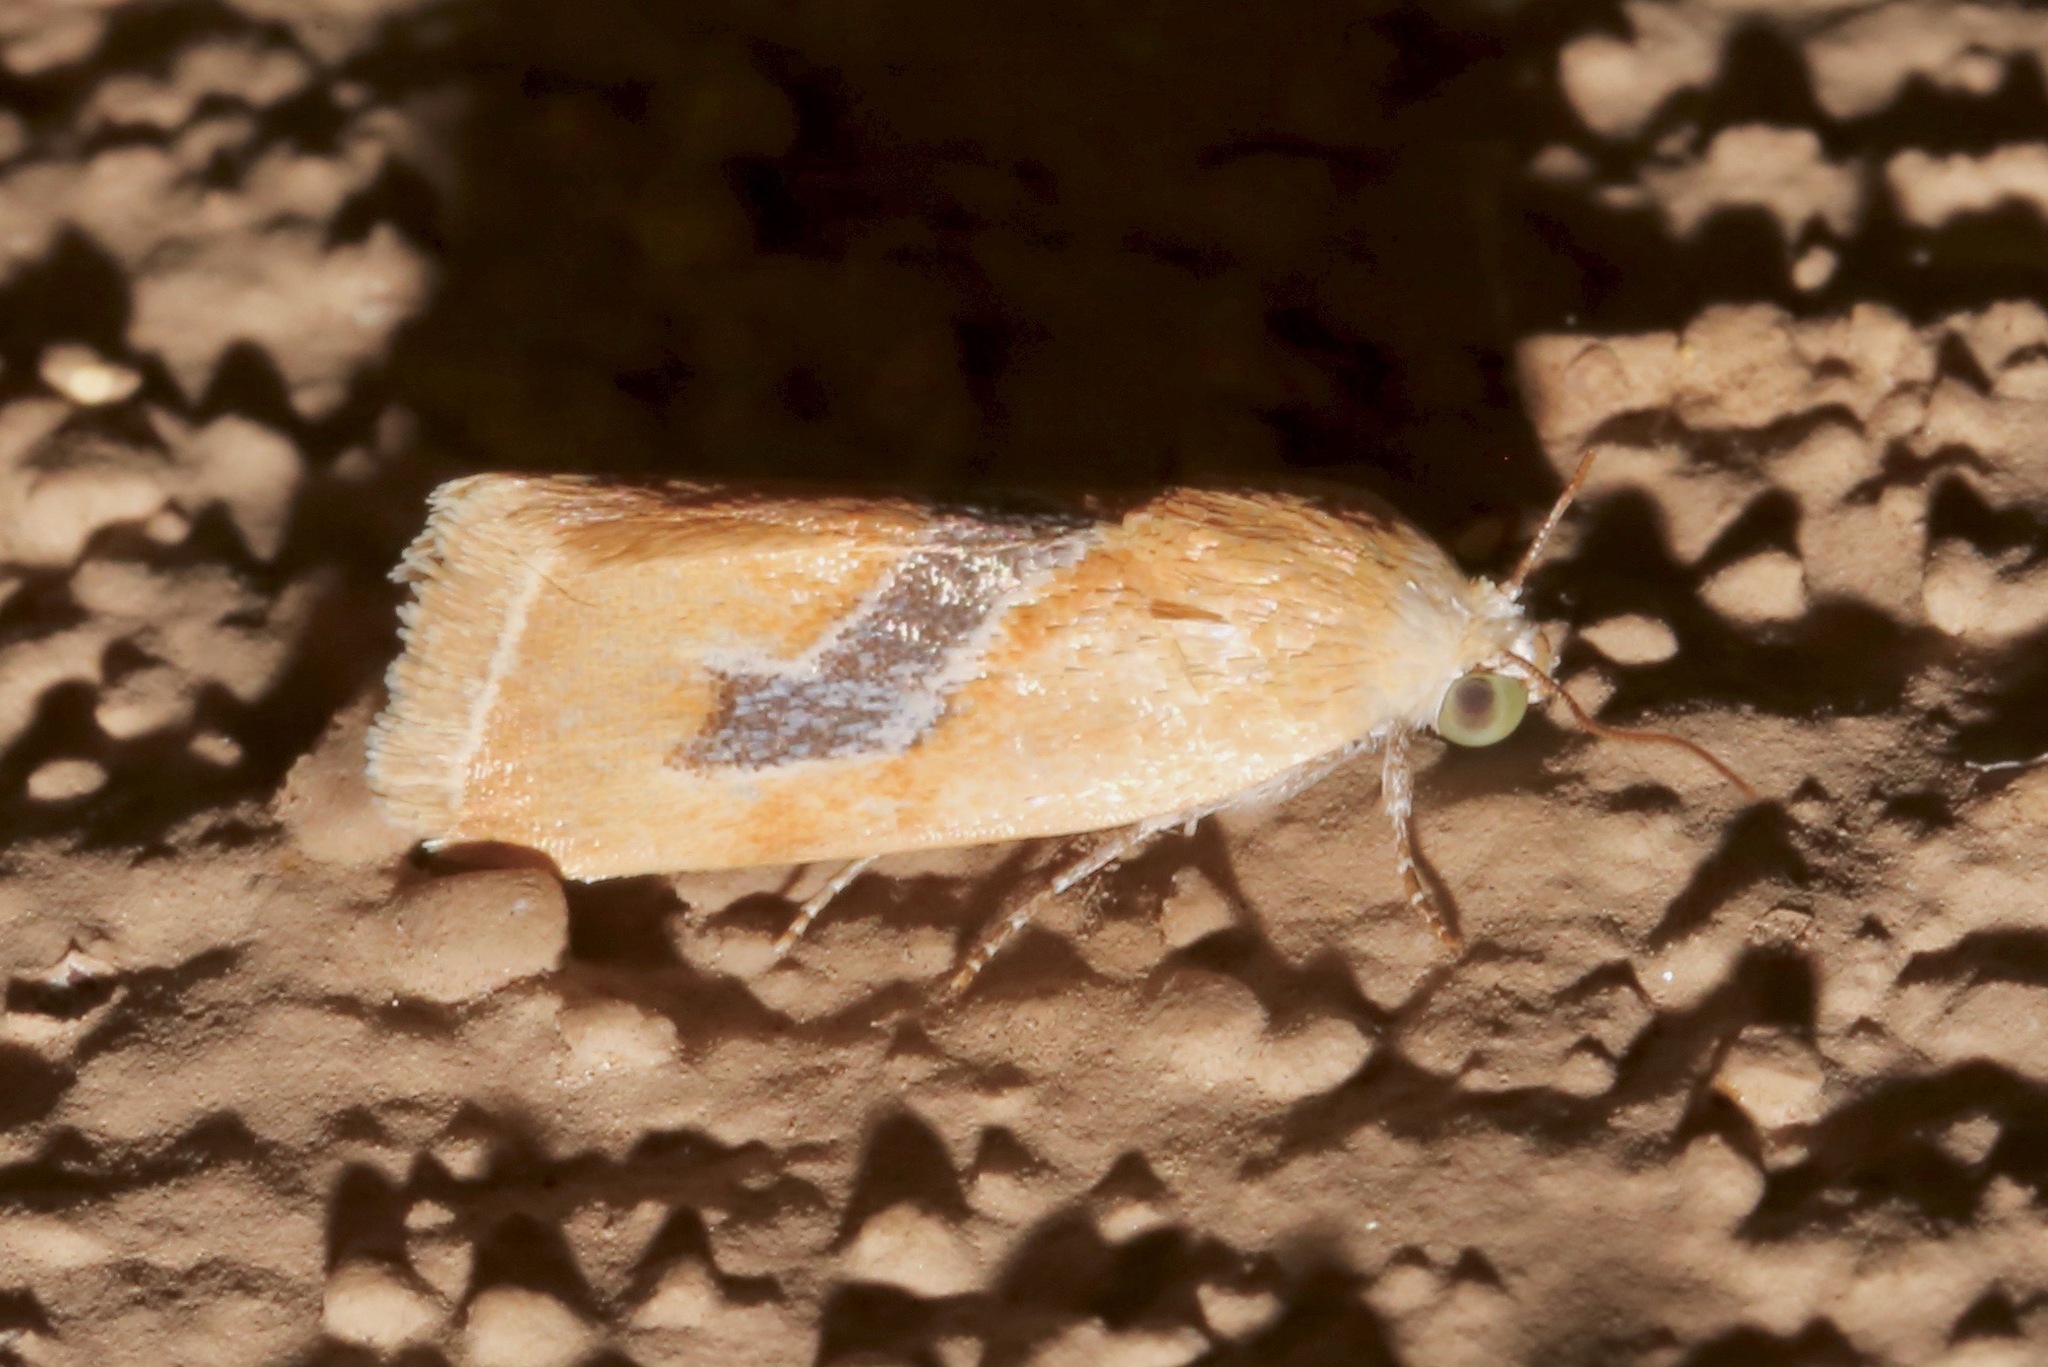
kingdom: Animalia
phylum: Arthropoda
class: Insecta
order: Lepidoptera
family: Noctuidae
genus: Ponometia
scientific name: Ponometia venustula
